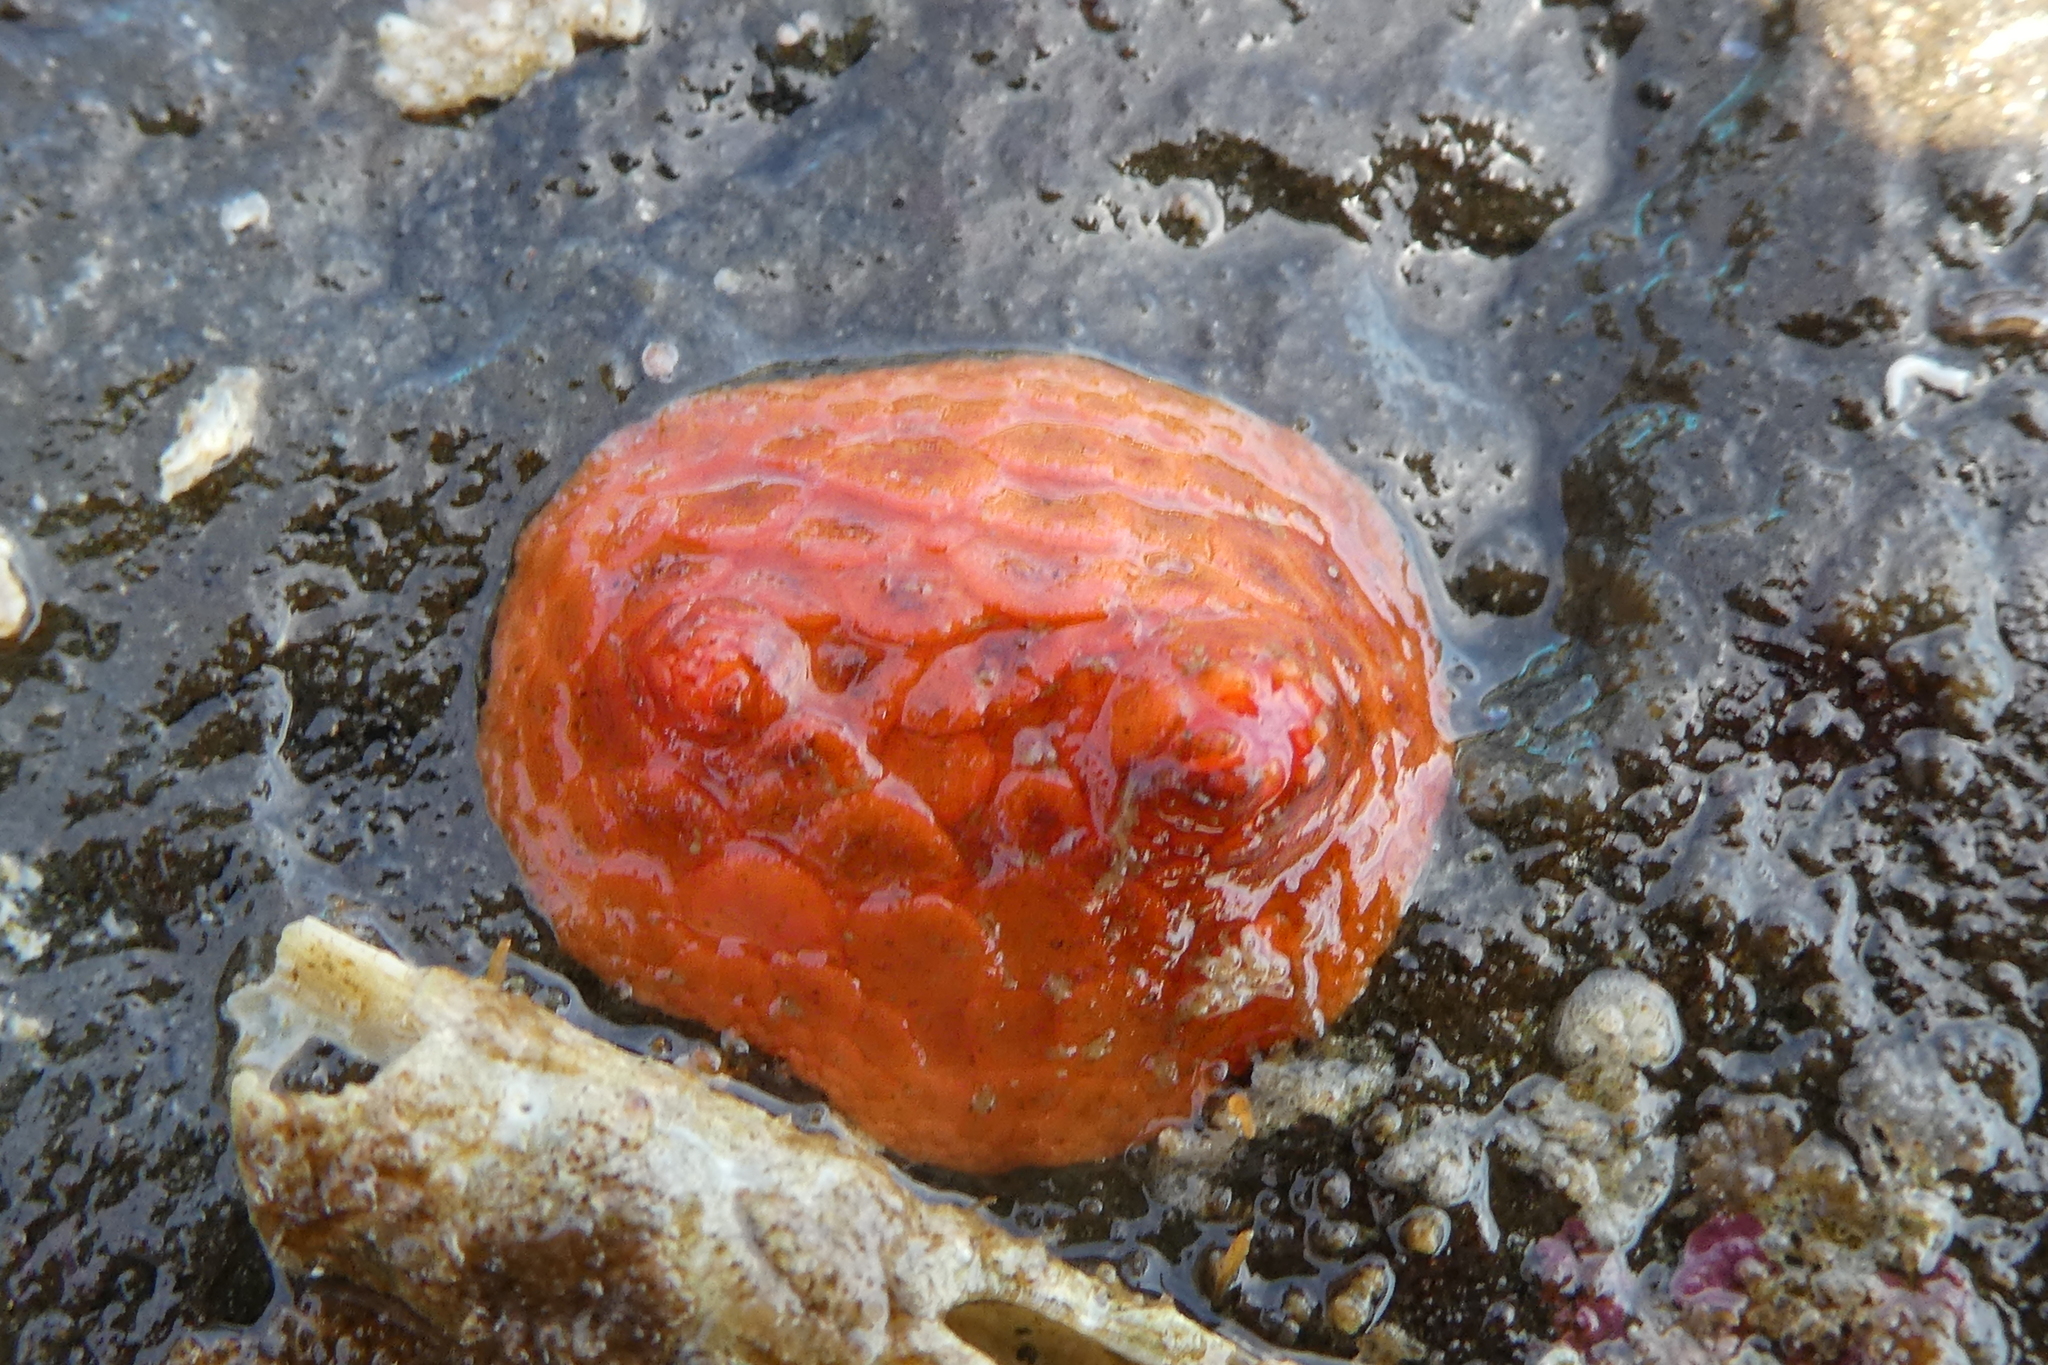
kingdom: Animalia
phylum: Echinodermata
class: Holothuroidea
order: Dendrochirotida
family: Psolidae
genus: Psolus
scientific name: Psolus chitonoides
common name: Creeping pedal sea cucumber
